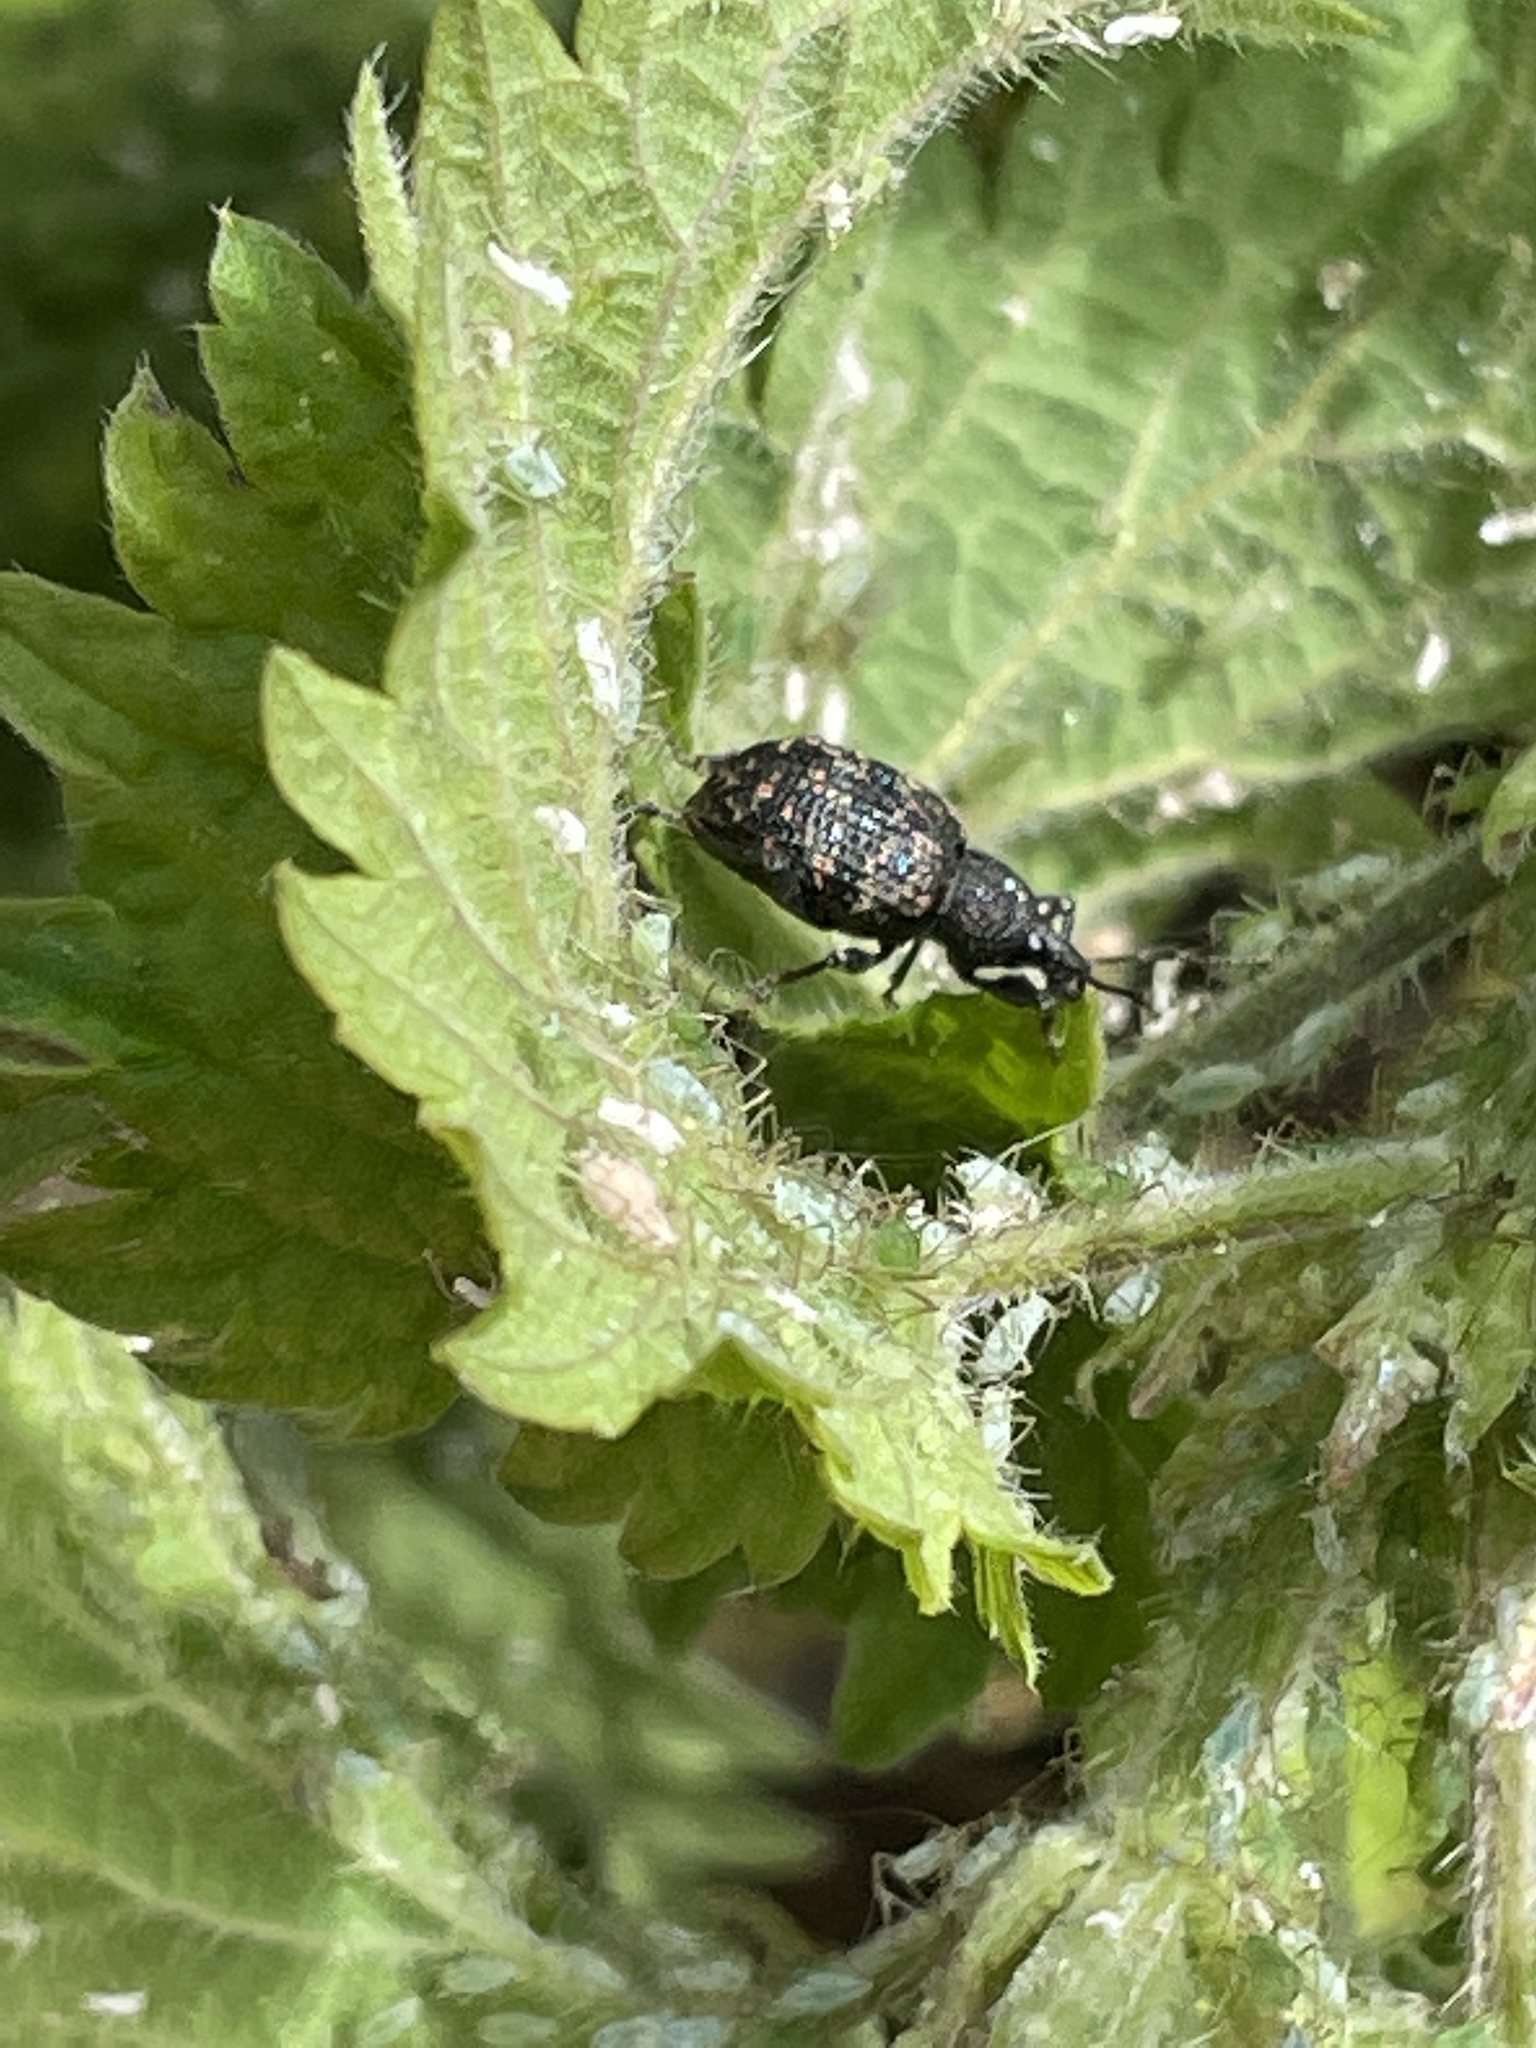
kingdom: Animalia
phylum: Arthropoda
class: Insecta
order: Coleoptera
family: Curculionidae
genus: Otiorhynchus
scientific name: Otiorhynchus sulcatus
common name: Black vine weevil
